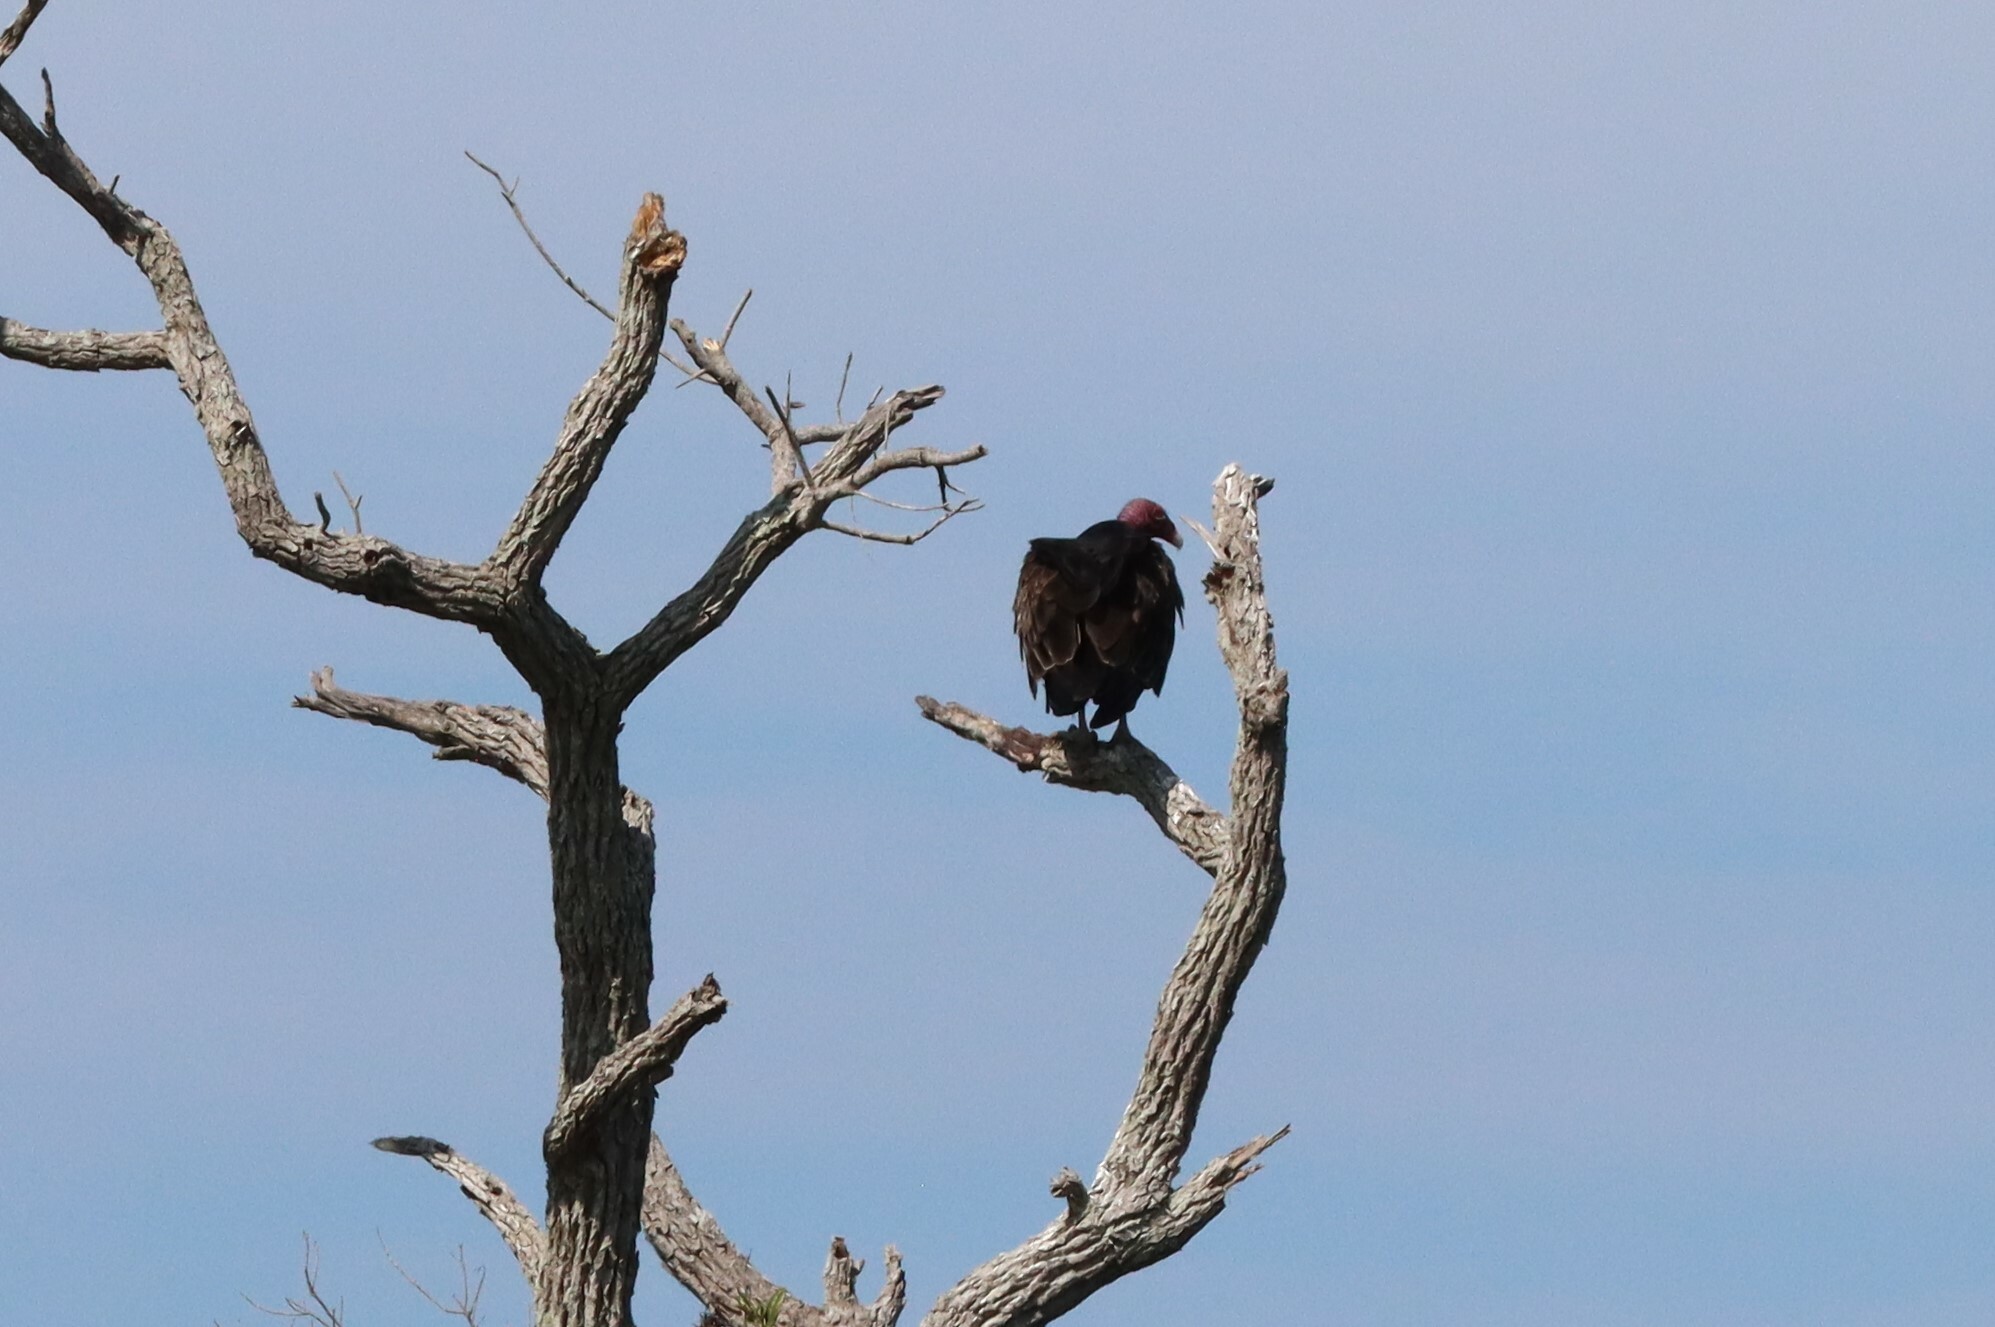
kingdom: Animalia
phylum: Chordata
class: Aves
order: Accipitriformes
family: Cathartidae
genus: Cathartes
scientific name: Cathartes aura
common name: Turkey vulture
